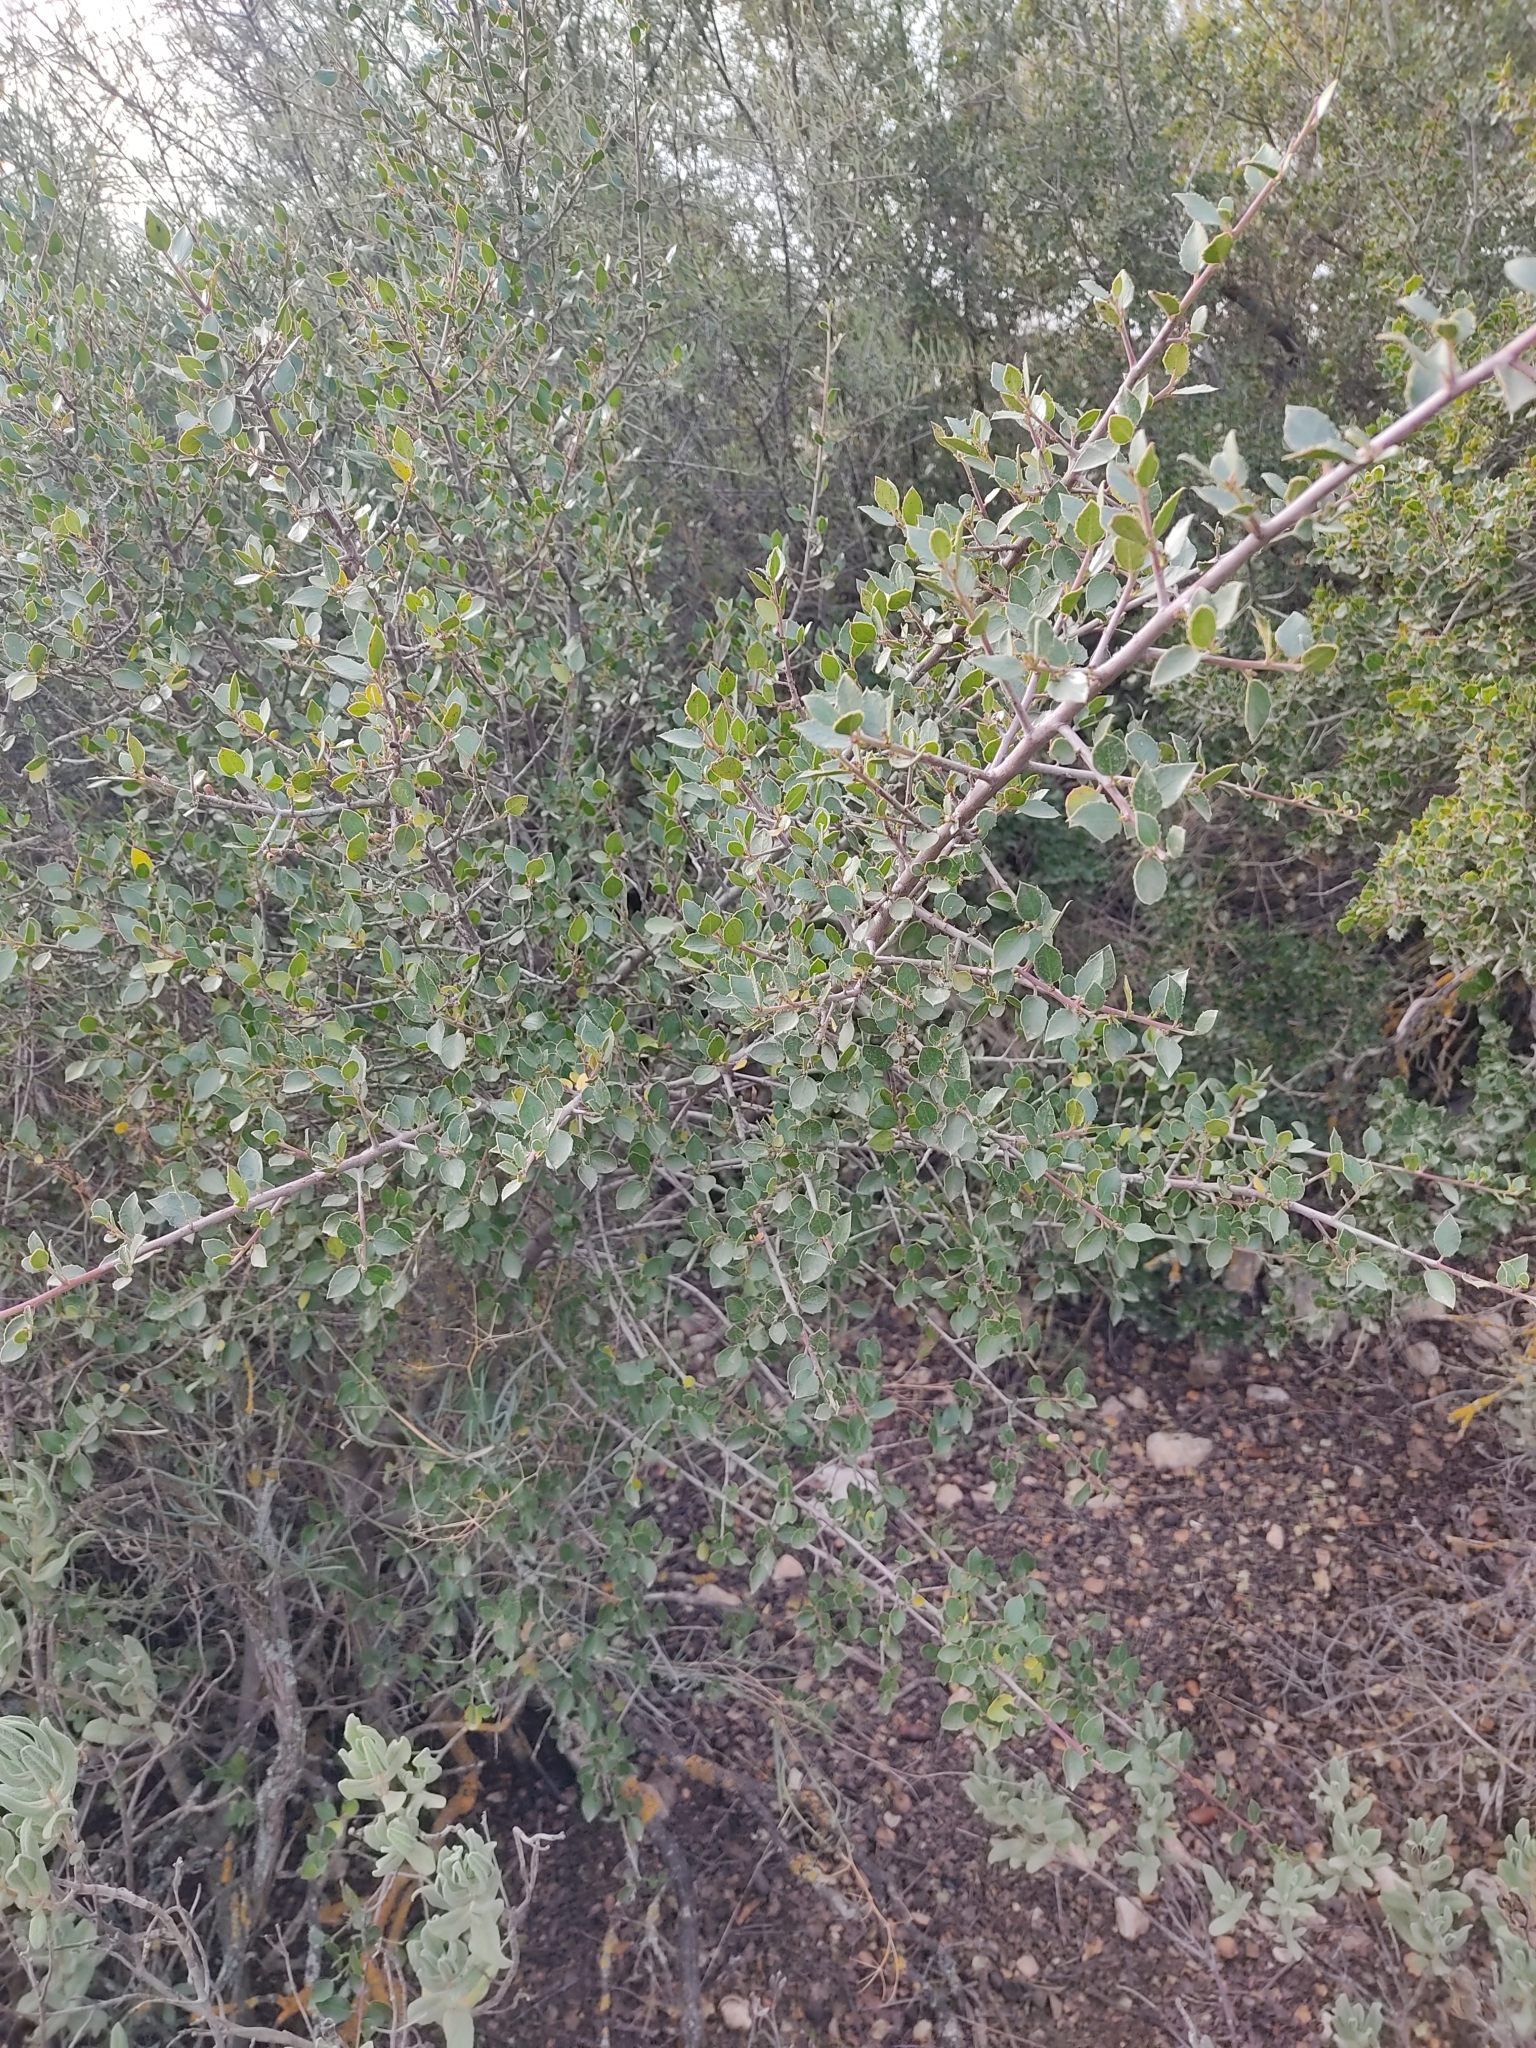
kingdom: Plantae
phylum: Tracheophyta
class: Magnoliopsida
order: Rosales
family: Rhamnaceae
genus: Rhamnus
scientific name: Rhamnus alaternus
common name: Mediterranean buckthorn
